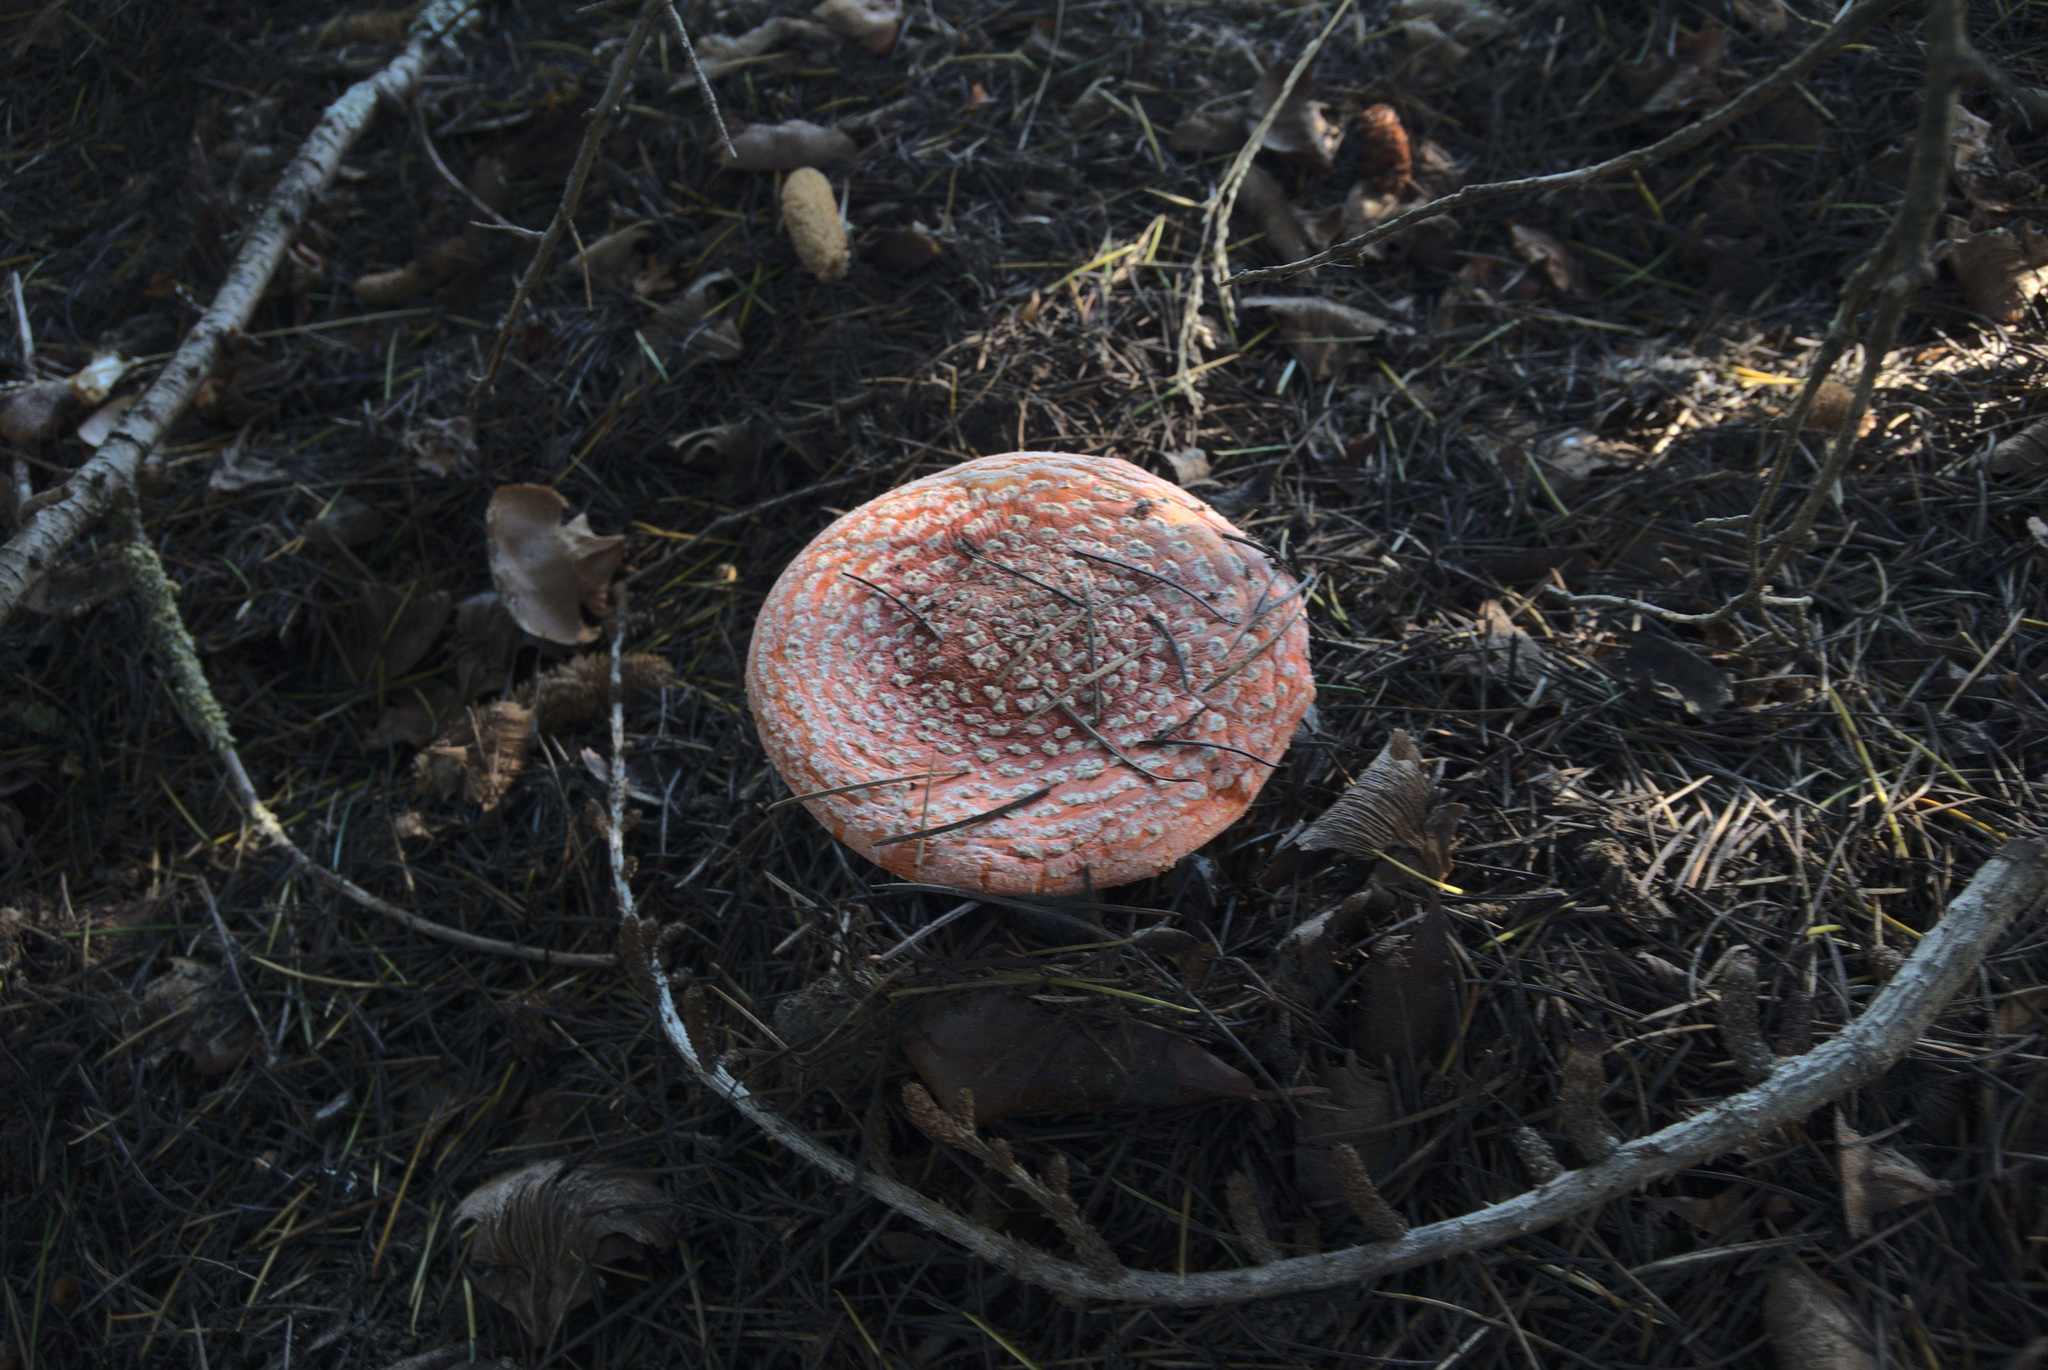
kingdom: Fungi
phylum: Basidiomycota
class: Agaricomycetes
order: Agaricales
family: Amanitaceae
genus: Amanita
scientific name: Amanita muscaria
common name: Fly agaric
